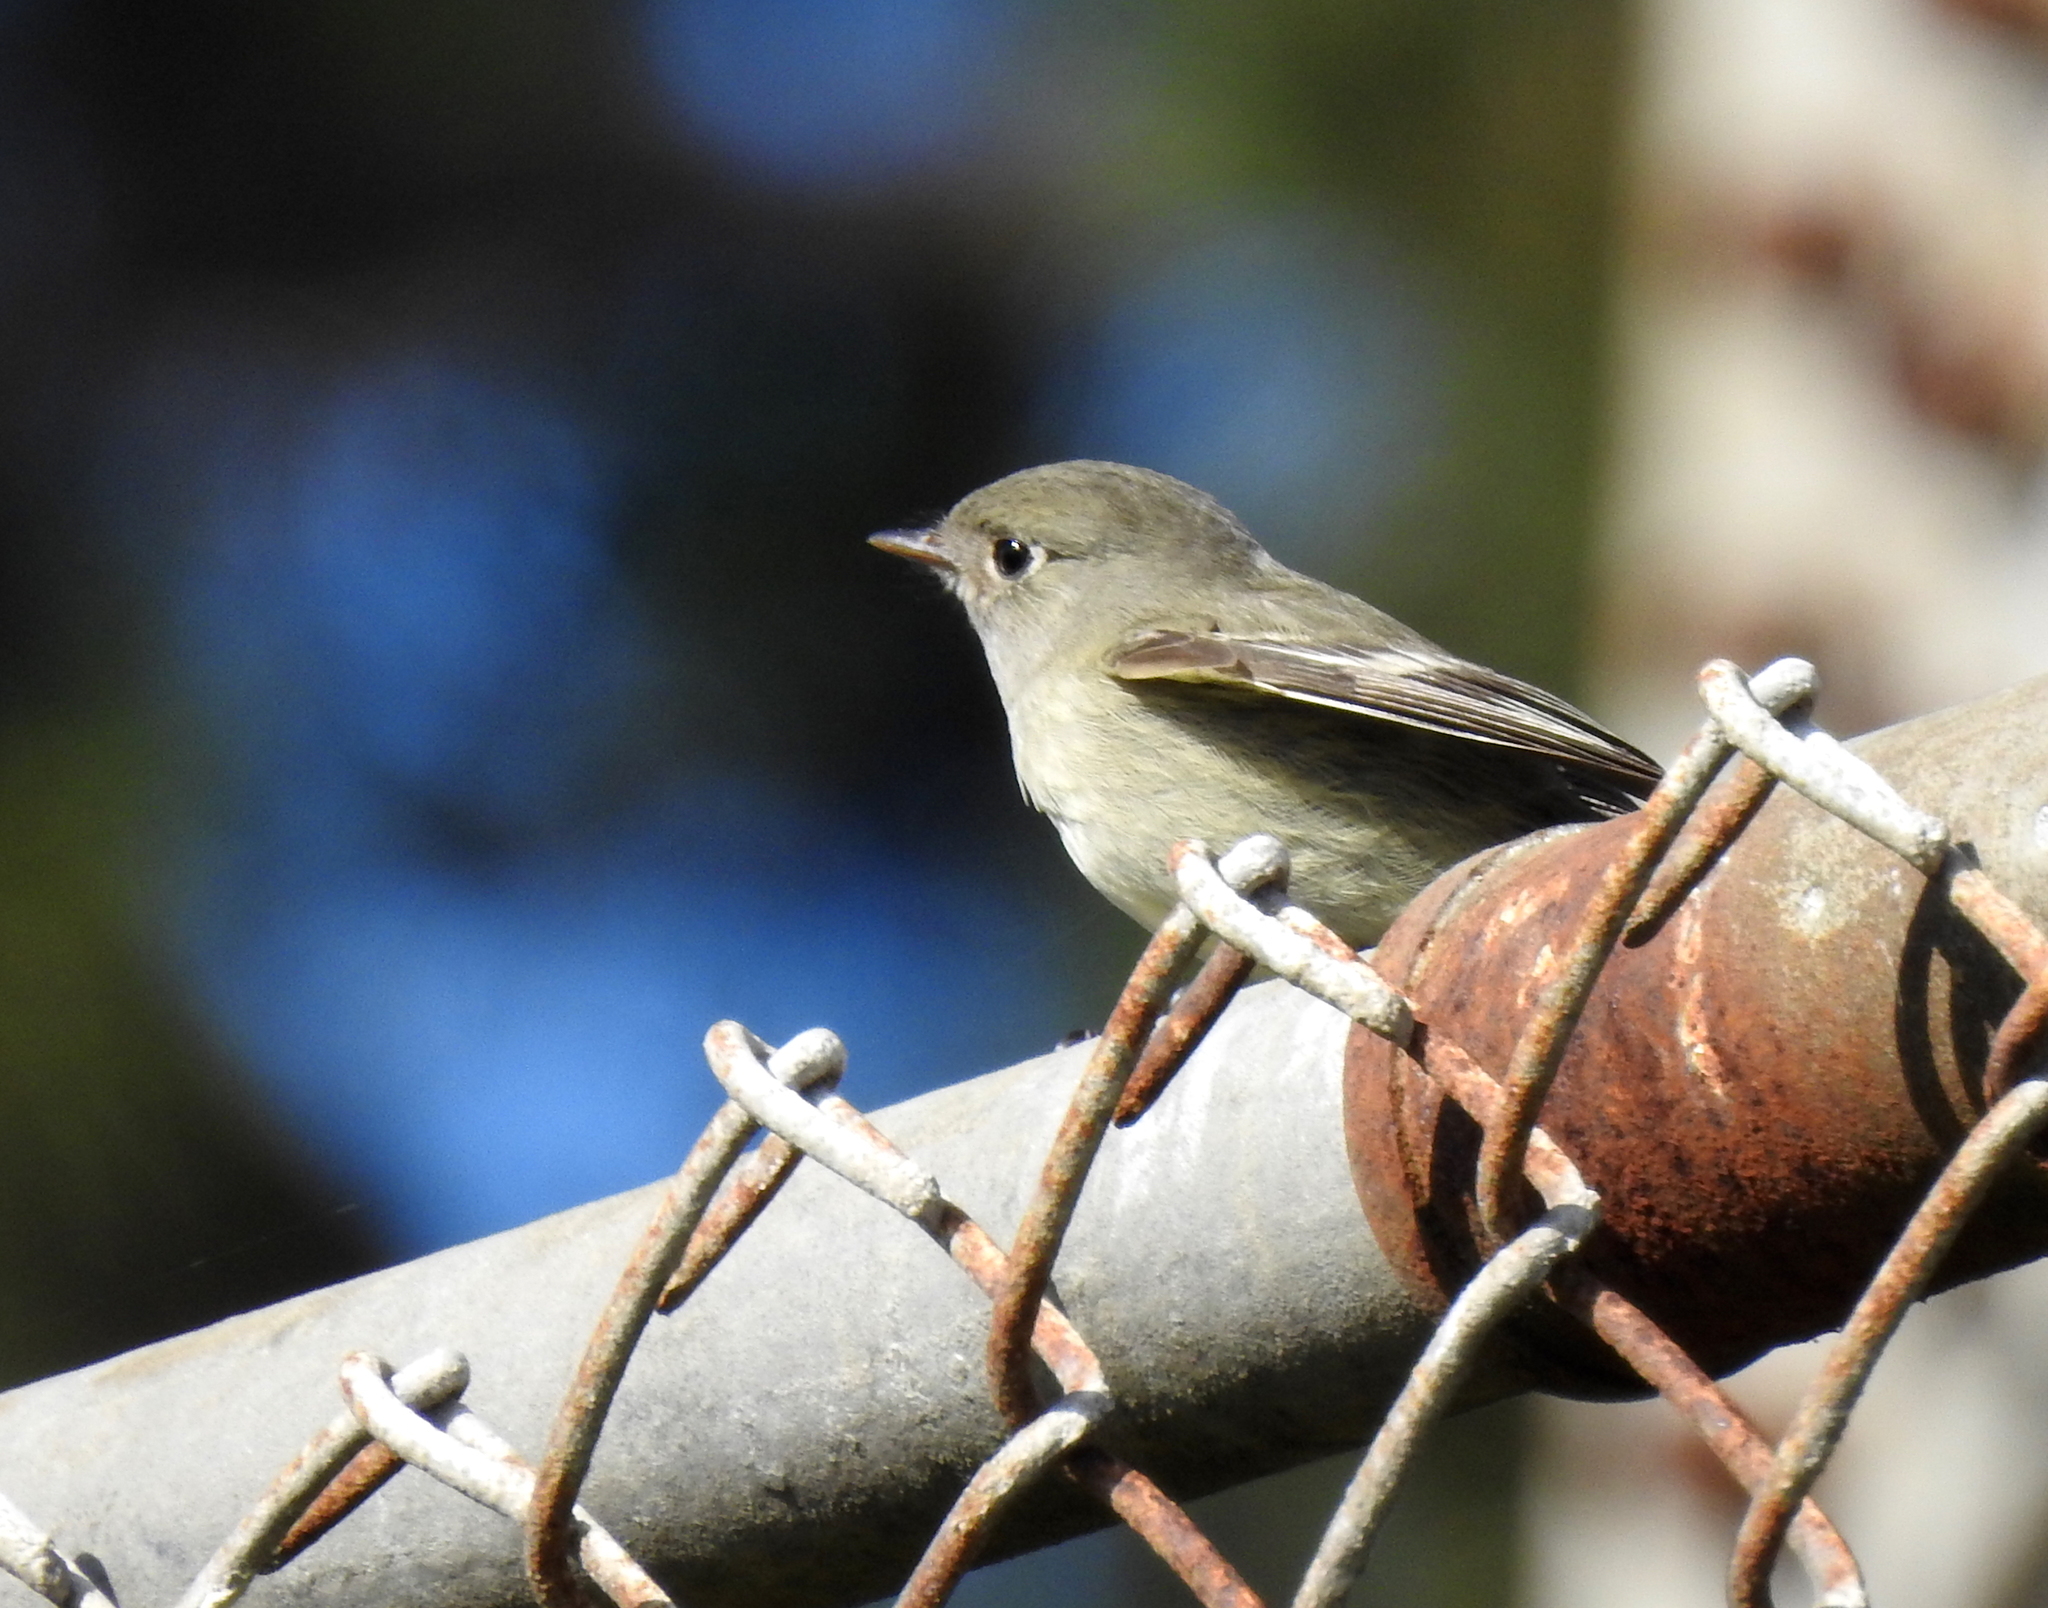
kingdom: Animalia
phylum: Chordata
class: Aves
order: Passeriformes
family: Tyrannidae
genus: Empidonax
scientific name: Empidonax hammondii
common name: Hammond's flycatcher
